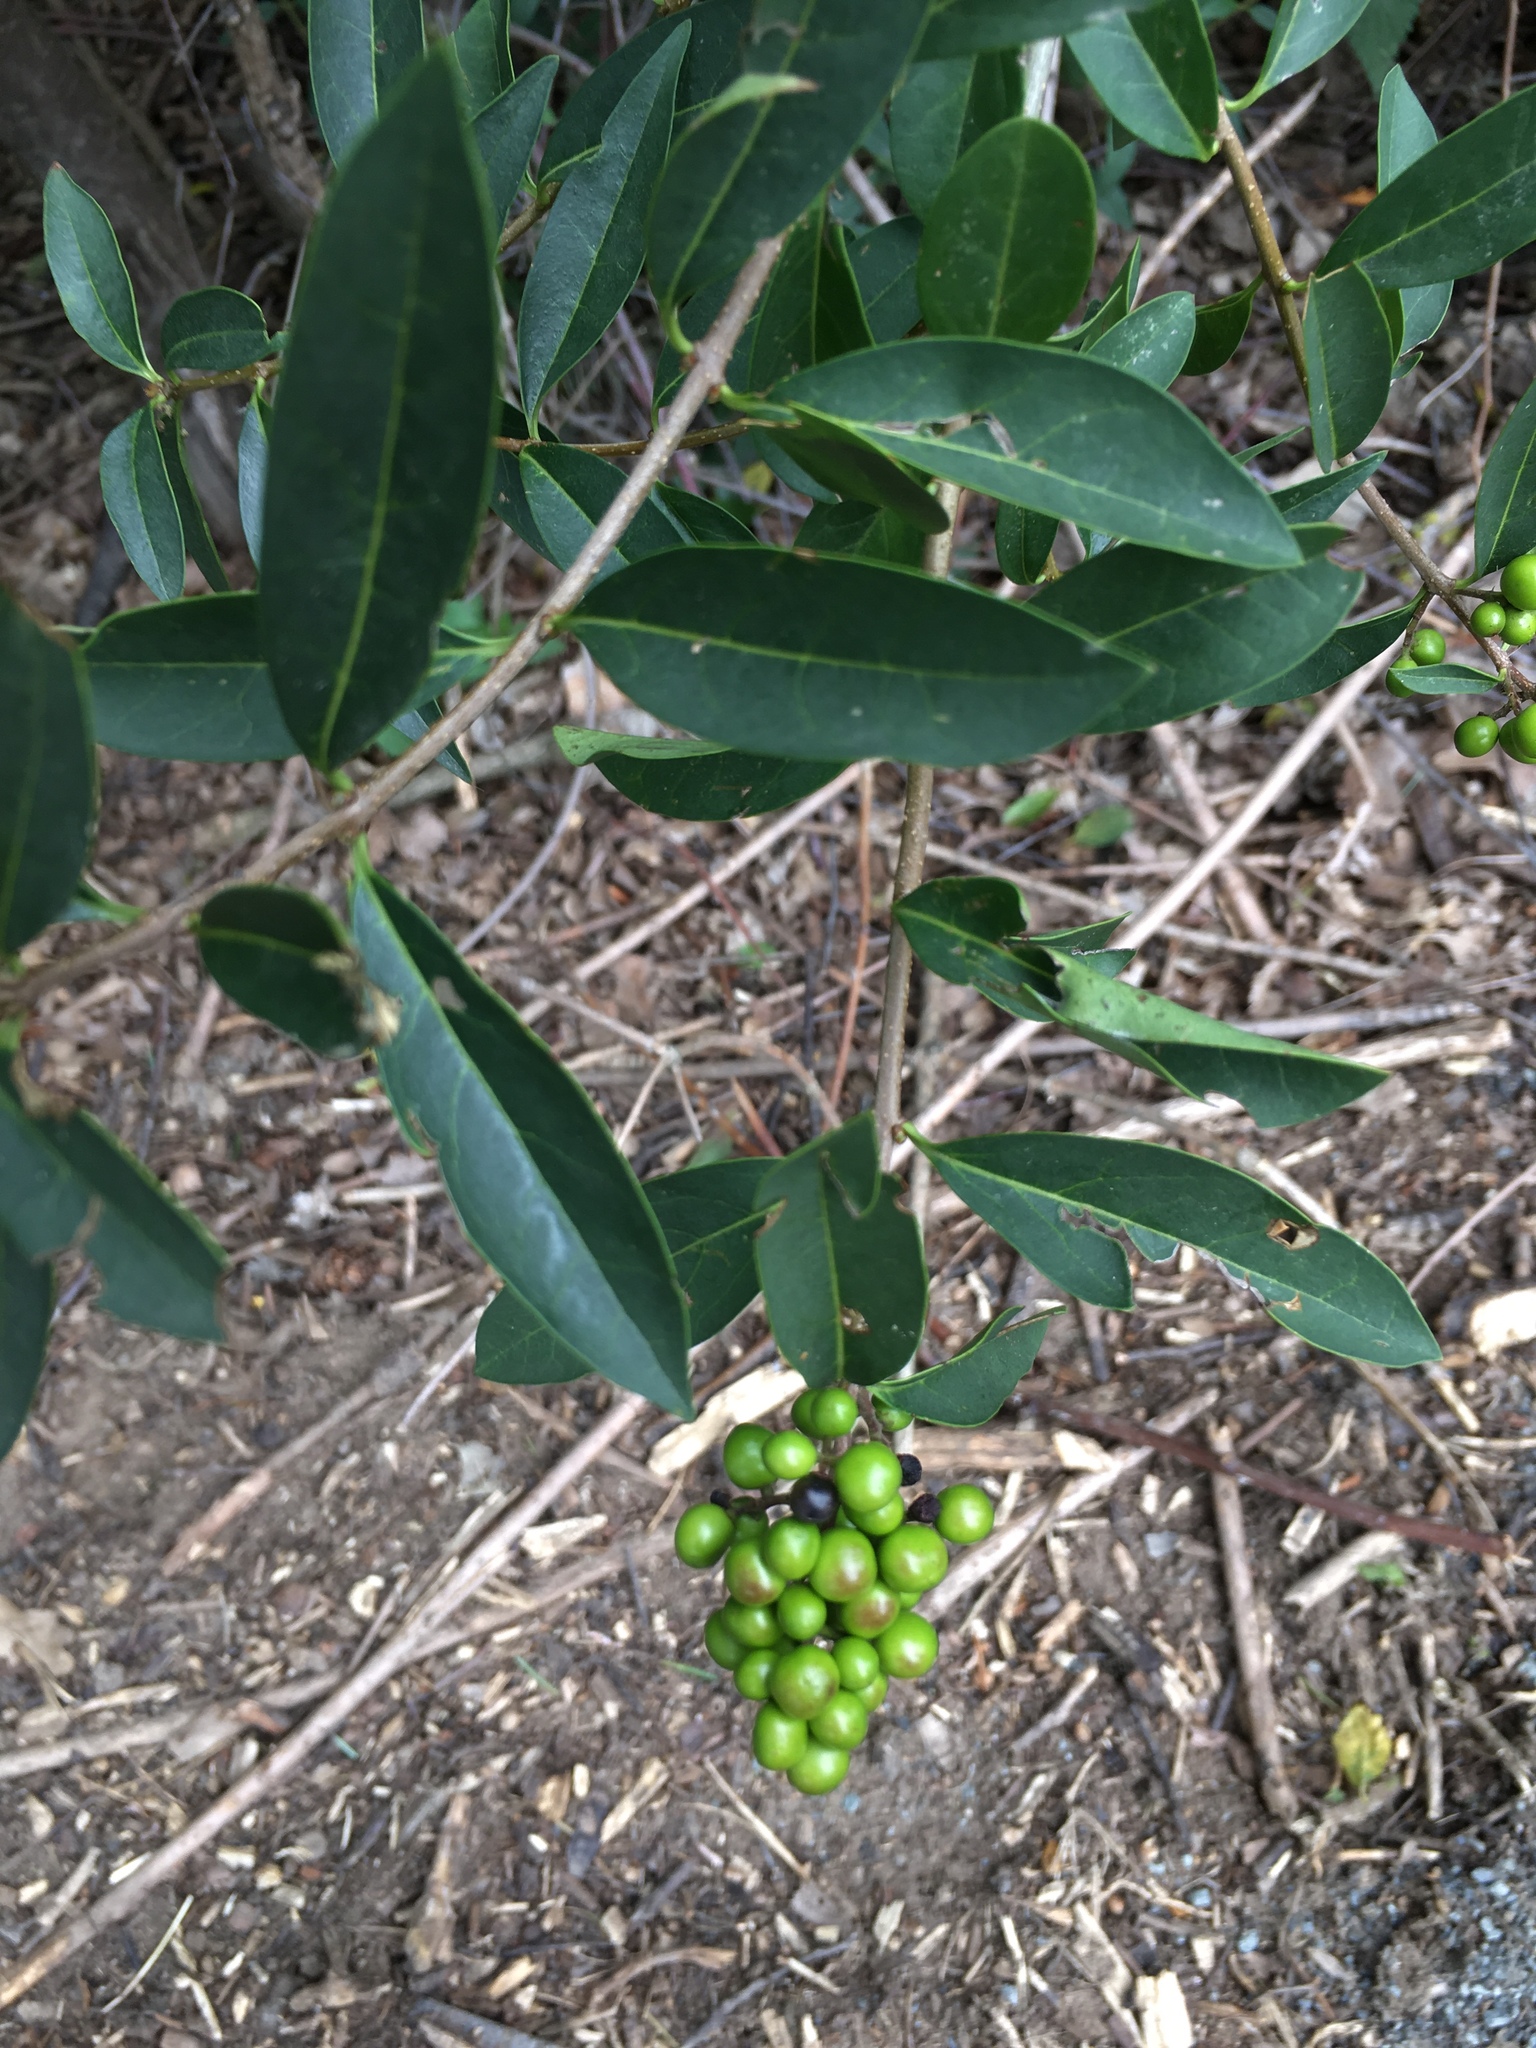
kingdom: Plantae
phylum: Tracheophyta
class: Magnoliopsida
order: Lamiales
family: Oleaceae
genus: Ligustrum
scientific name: Ligustrum vulgare
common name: Wild privet
